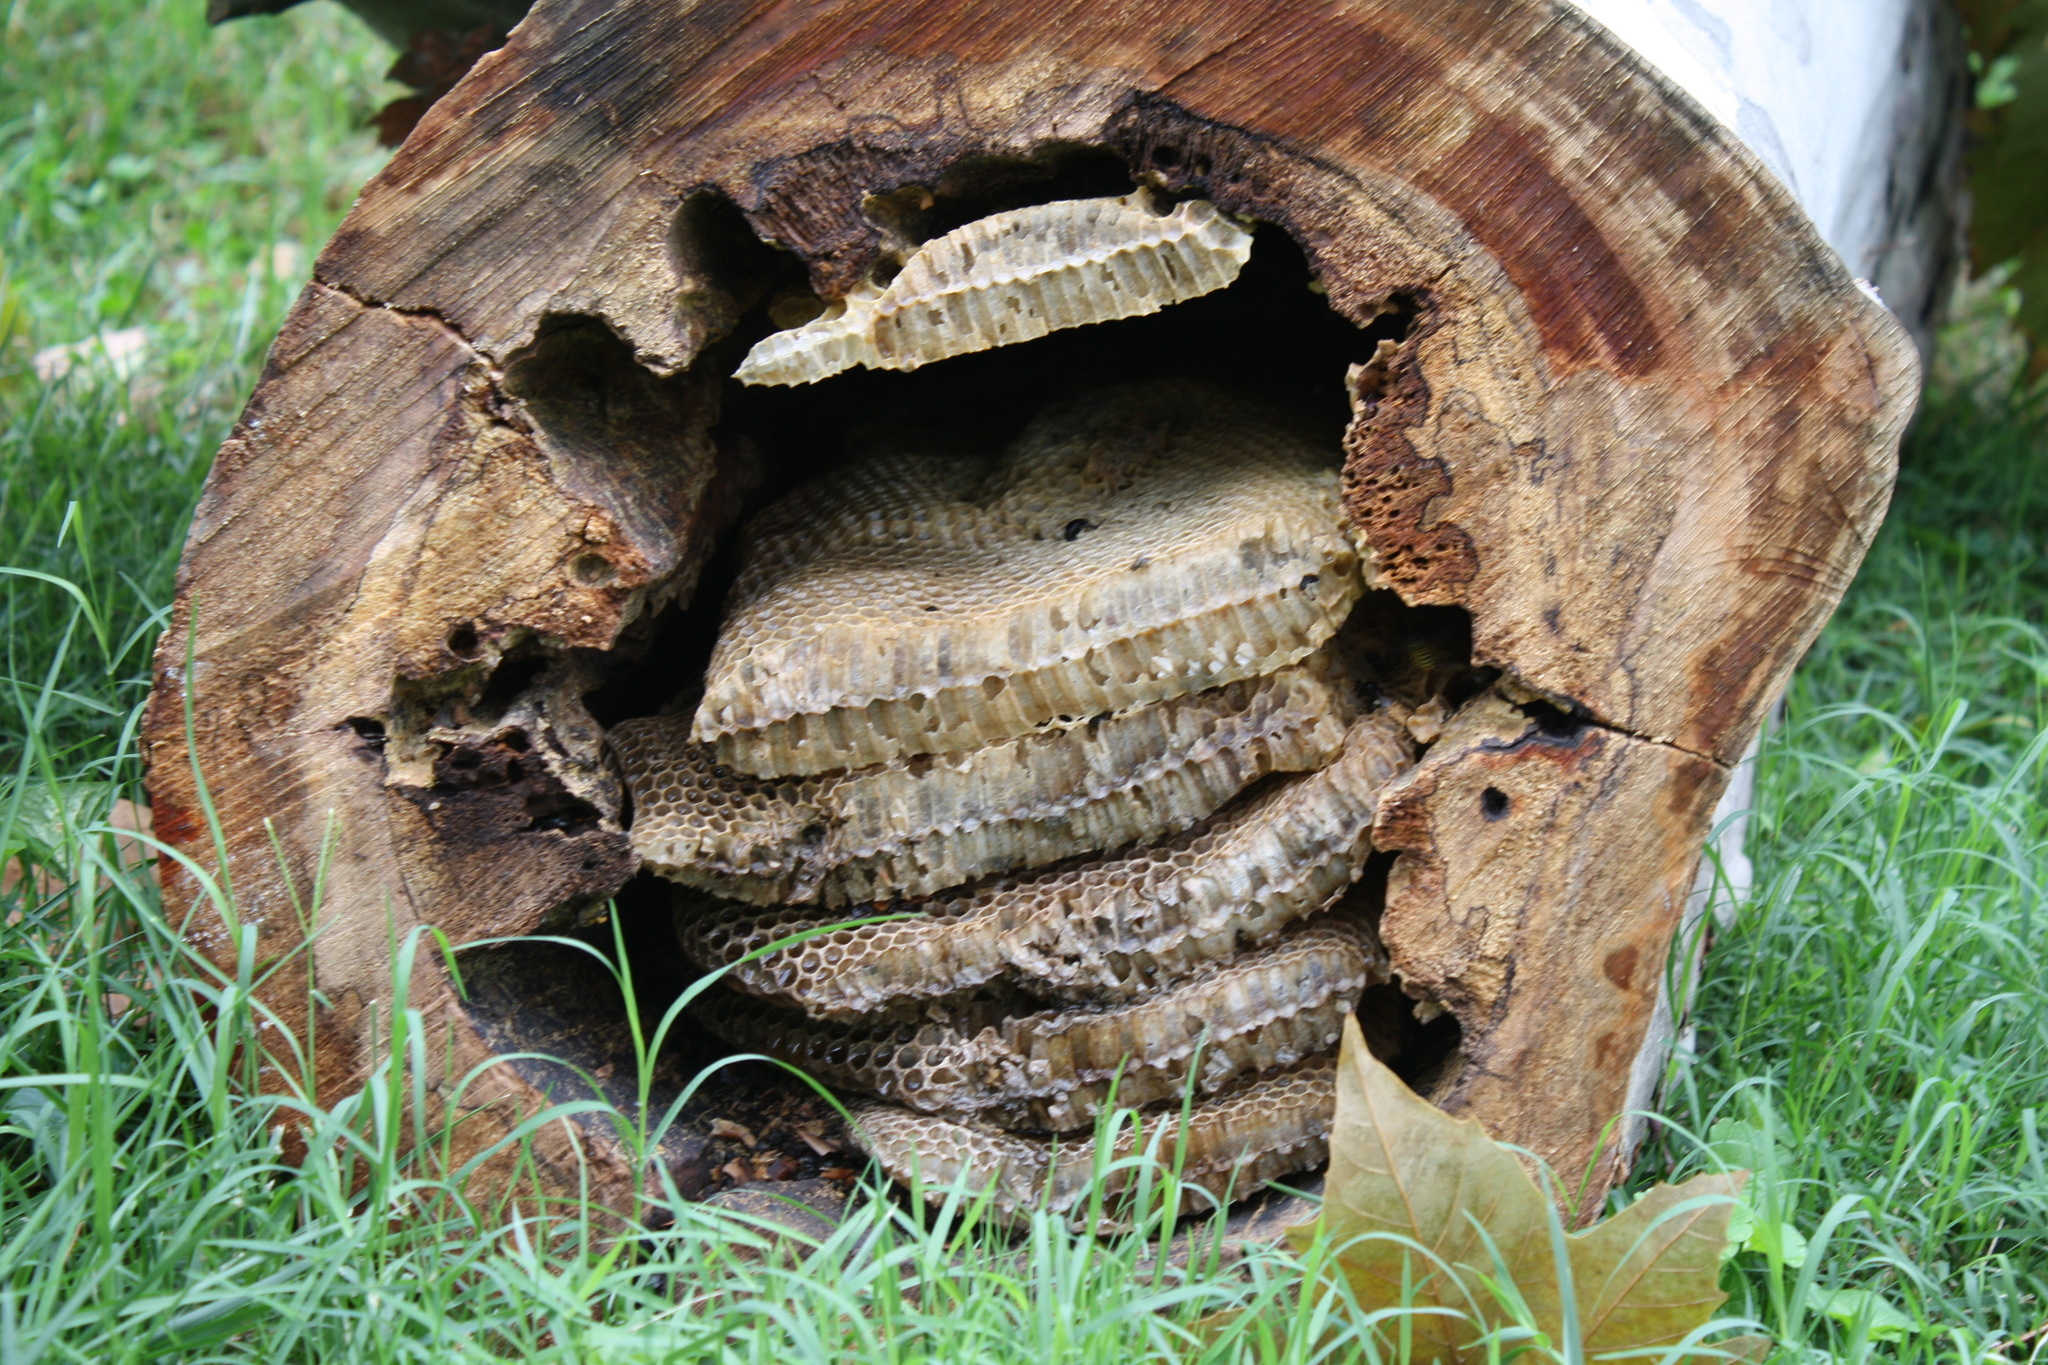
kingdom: Animalia
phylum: Arthropoda
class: Insecta
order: Hymenoptera
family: Apidae
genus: Apis
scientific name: Apis mellifera
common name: Honey bee
